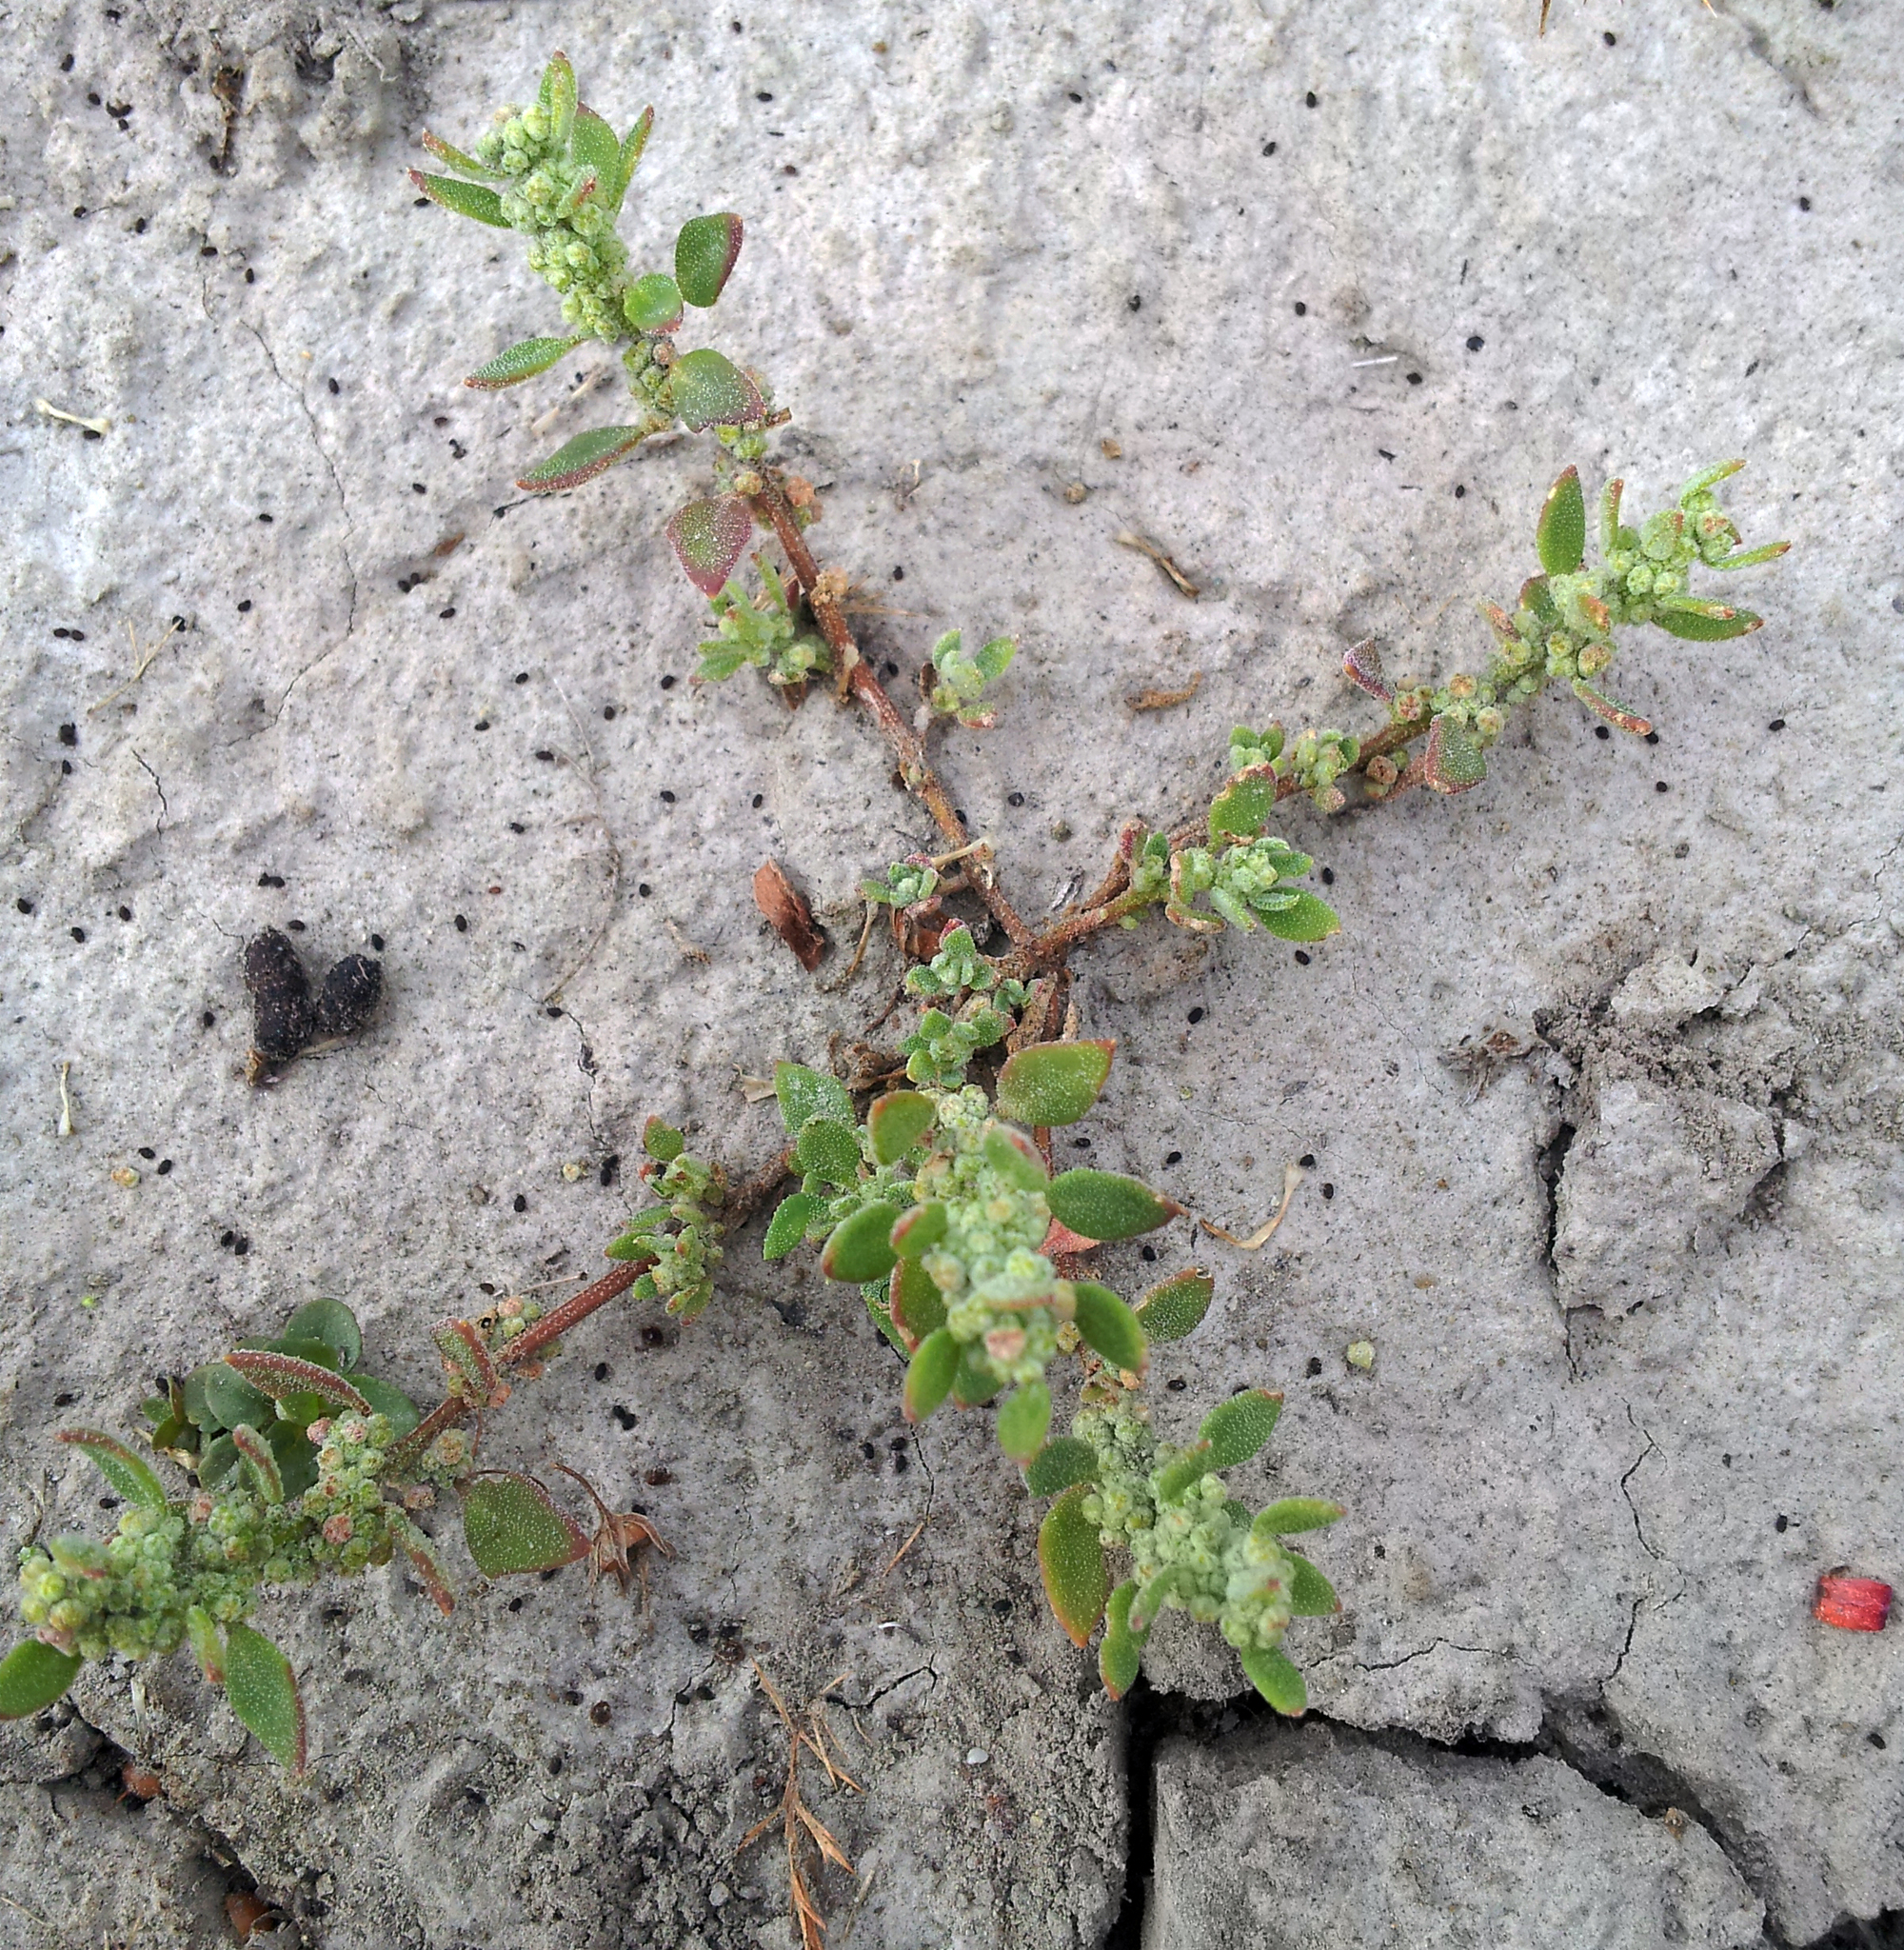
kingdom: Plantae
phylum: Tracheophyta
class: Magnoliopsida
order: Caryophyllales
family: Amaranthaceae
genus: Chenopodium
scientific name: Chenopodium detestans
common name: Fish-guts
